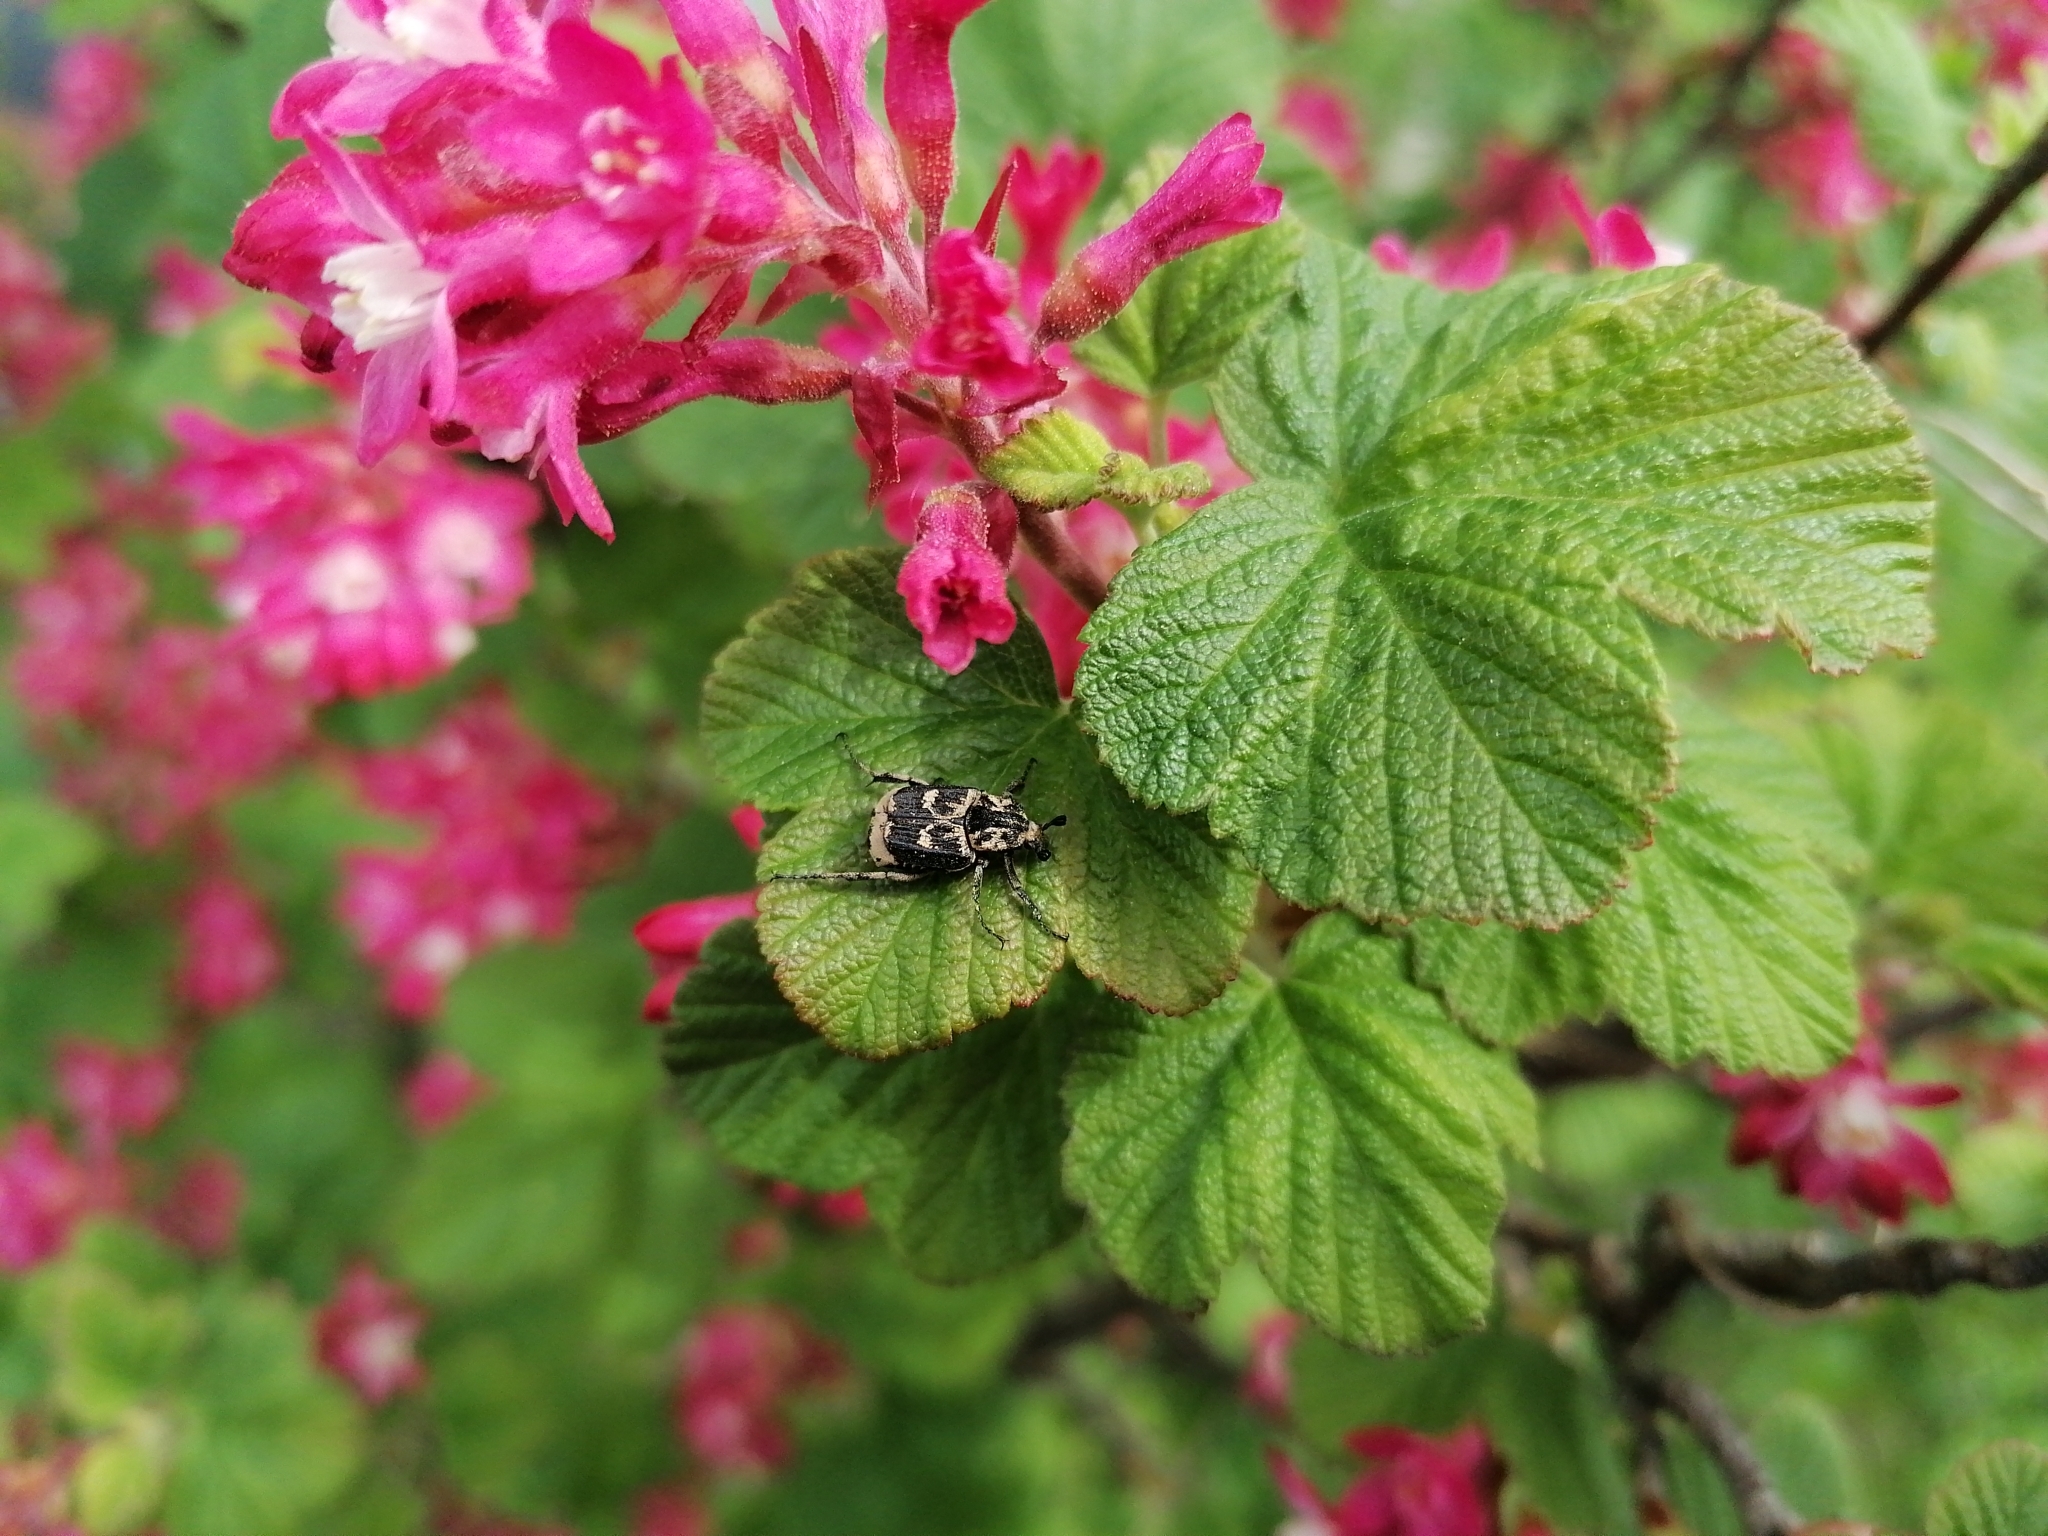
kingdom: Animalia
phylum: Arthropoda
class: Insecta
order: Coleoptera
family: Scarabaeidae
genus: Valgus
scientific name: Valgus hemipterus
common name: Bug flower chafer
